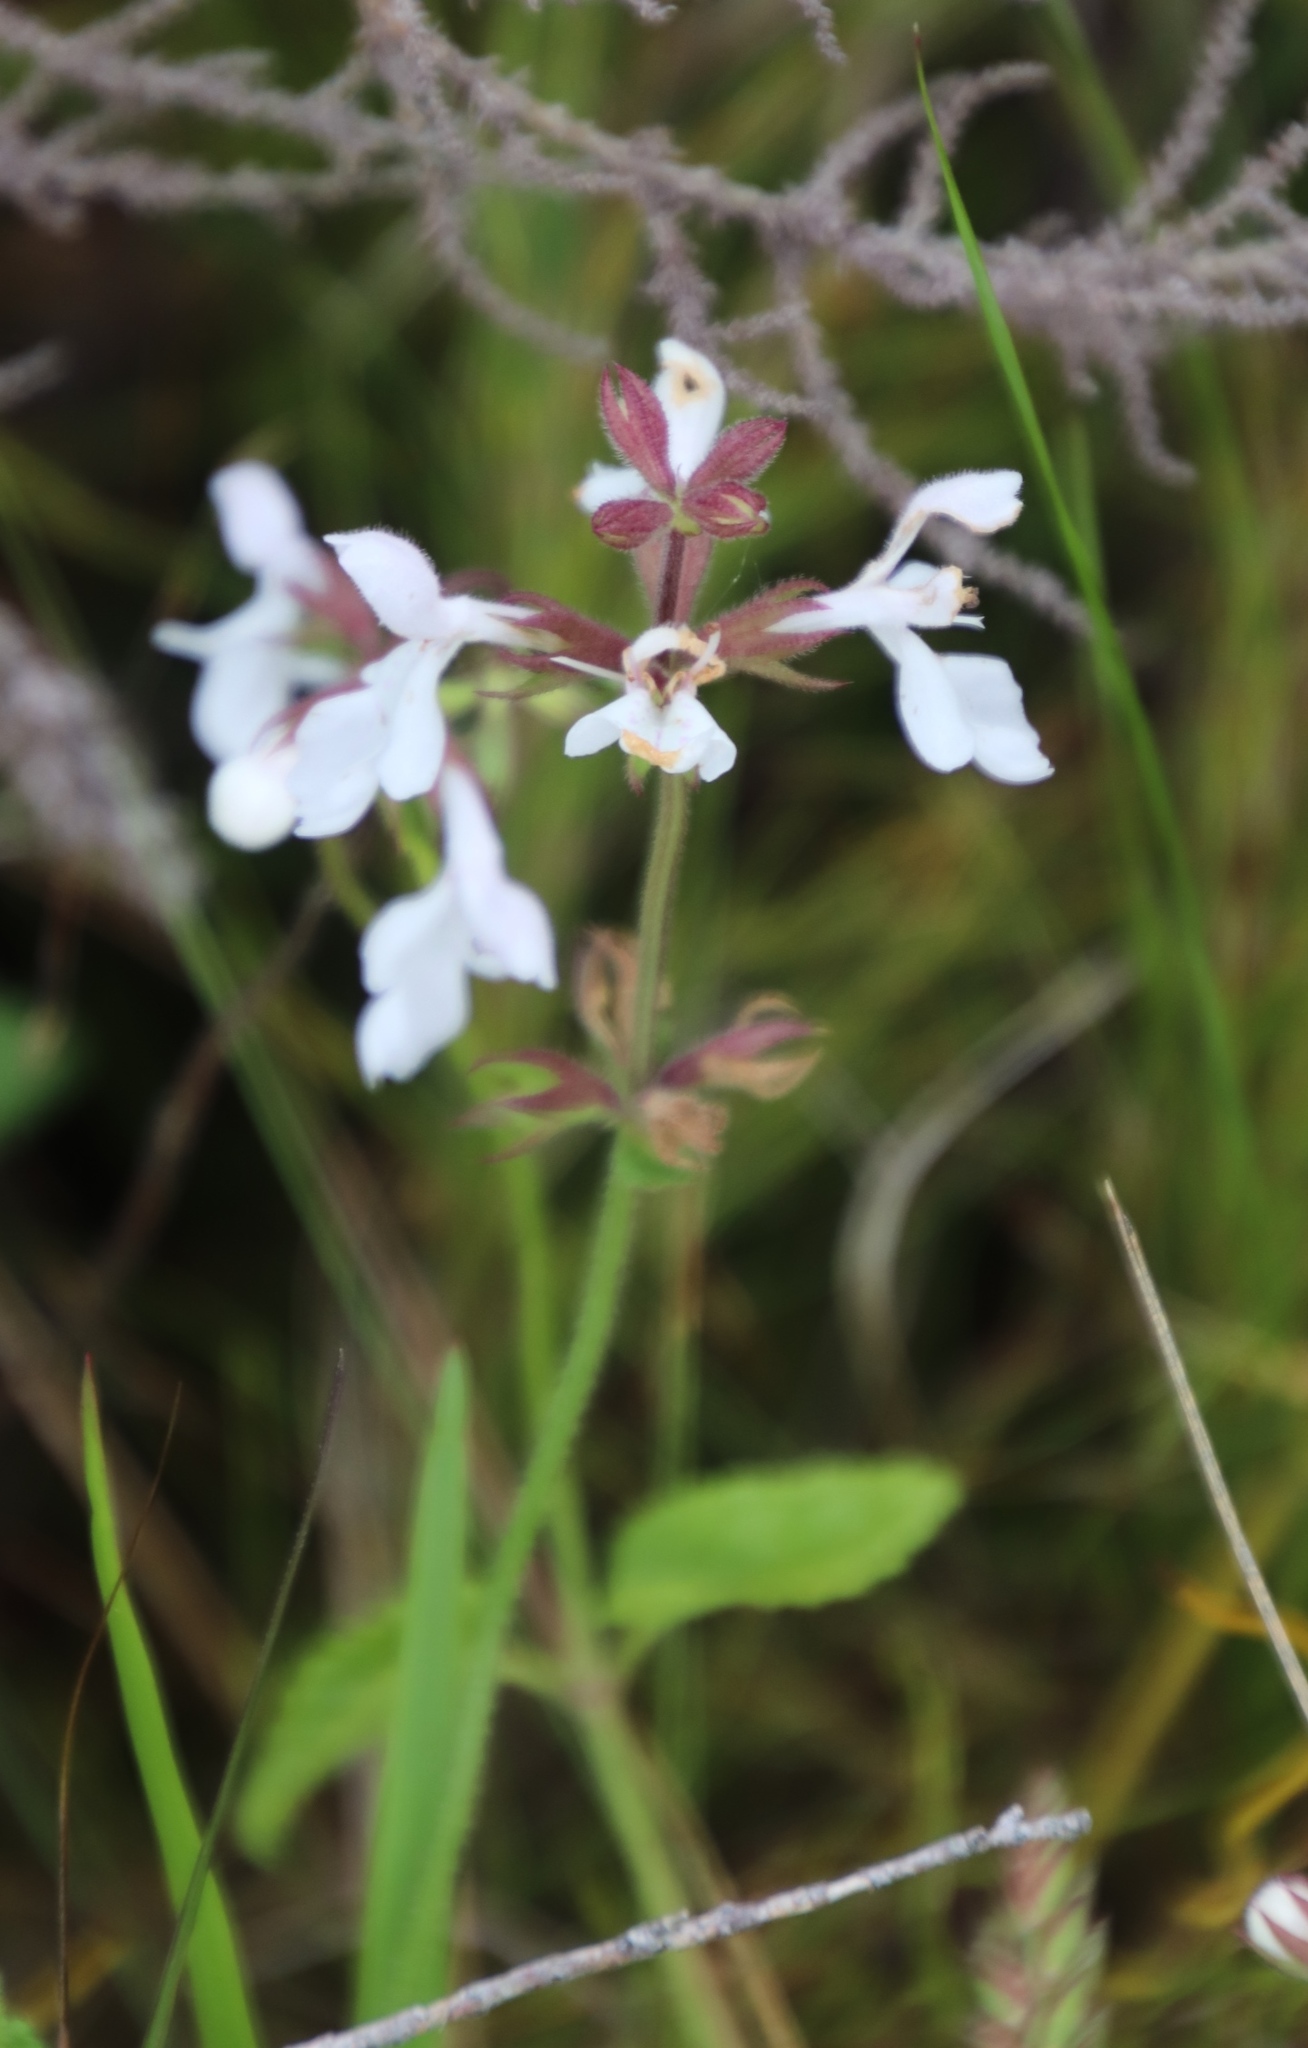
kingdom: Plantae
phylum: Tracheophyta
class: Magnoliopsida
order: Lamiales
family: Lamiaceae
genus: Stachys
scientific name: Stachys aethiopica
